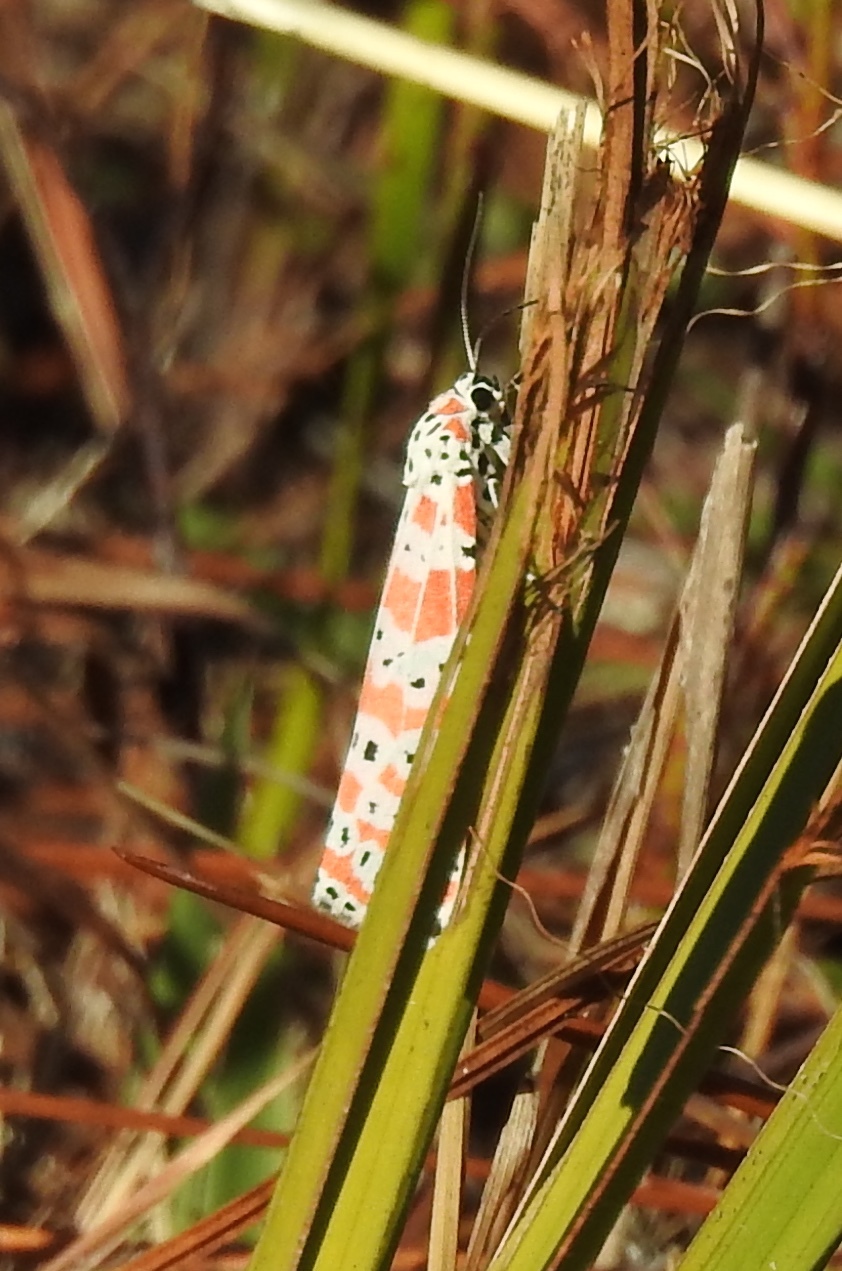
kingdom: Animalia
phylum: Arthropoda
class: Insecta
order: Lepidoptera
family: Erebidae
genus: Utetheisa
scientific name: Utetheisa ornatrix
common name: Beautiful utetheisa
